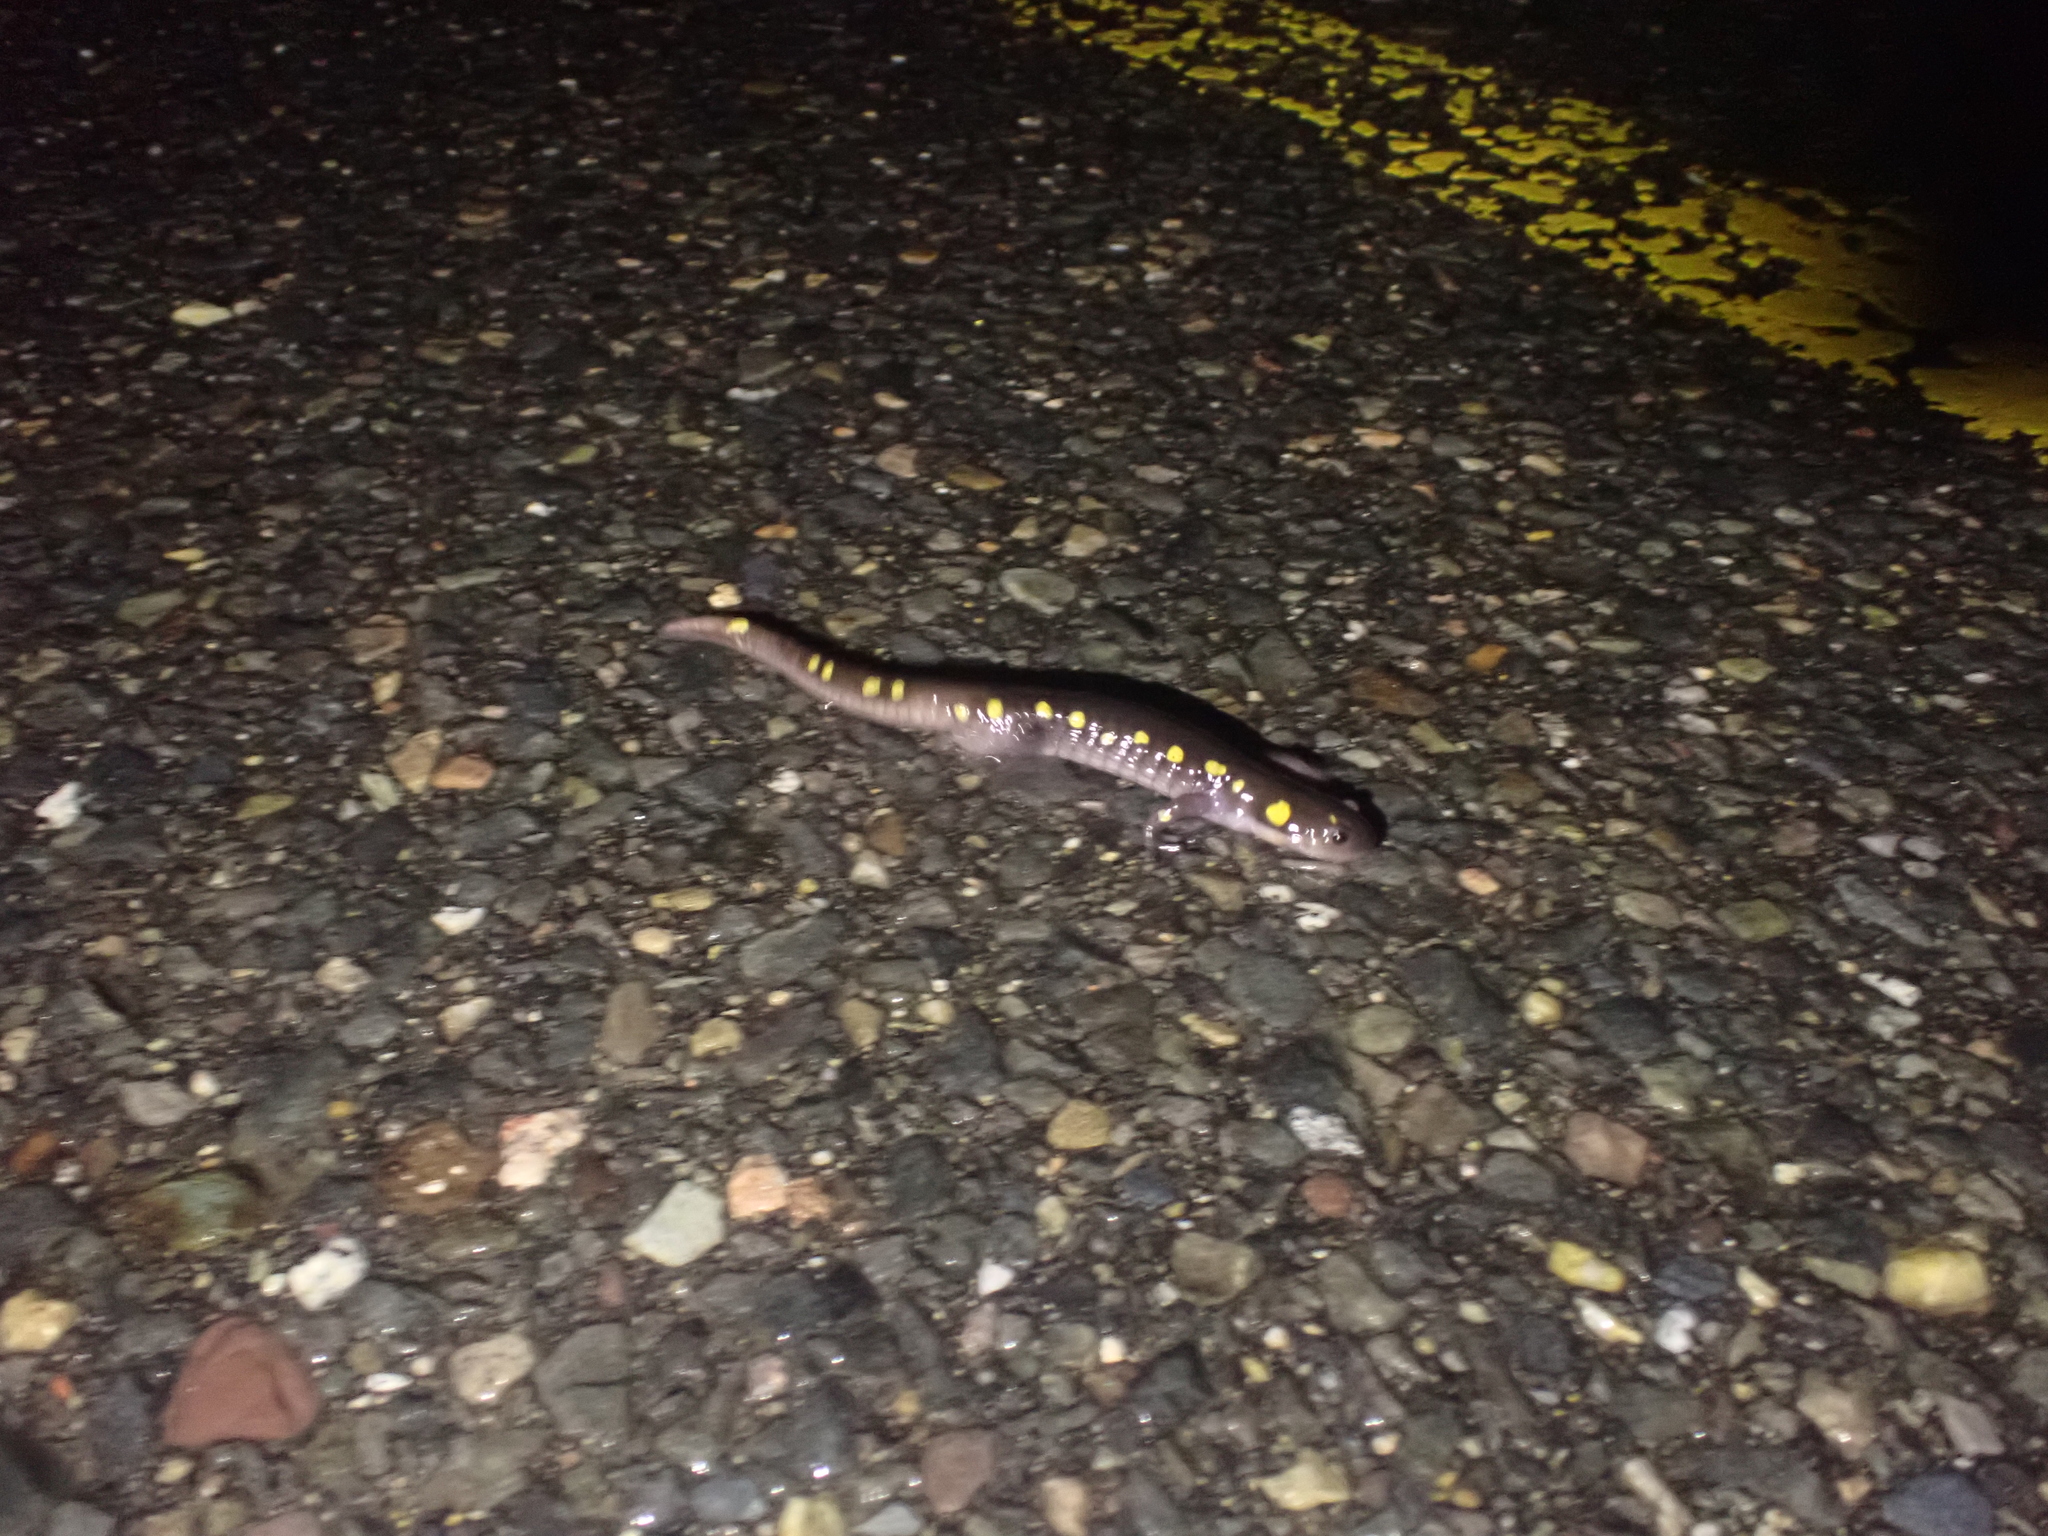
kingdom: Animalia
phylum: Chordata
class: Amphibia
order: Caudata
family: Ambystomatidae
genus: Ambystoma
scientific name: Ambystoma maculatum
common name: Spotted salamander
